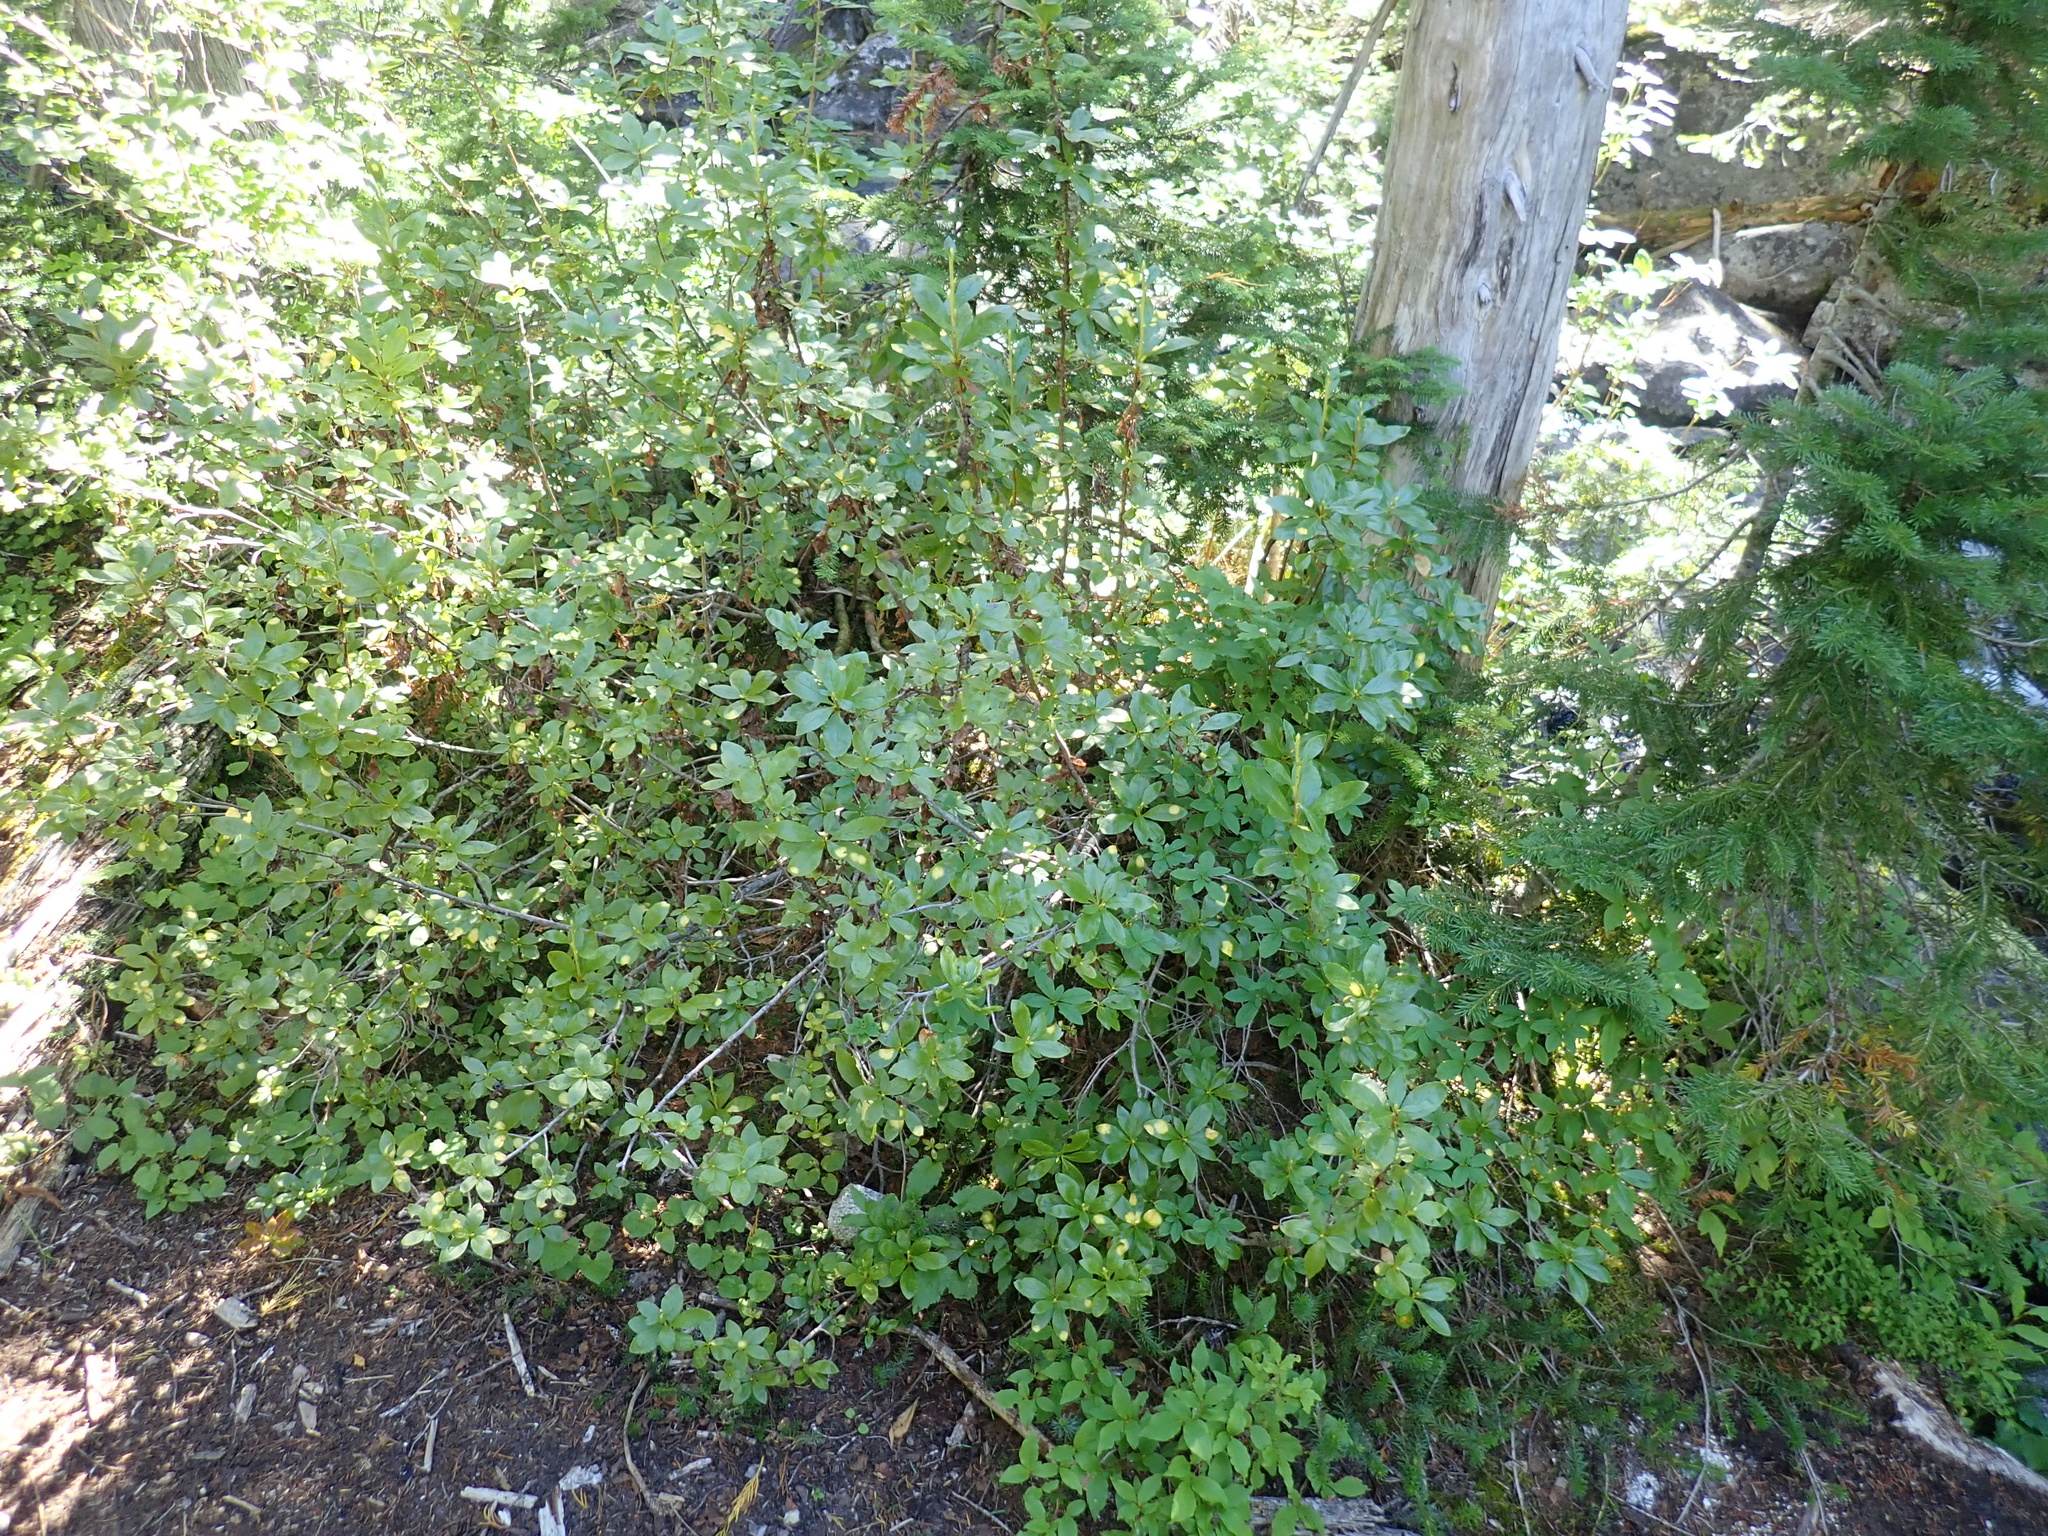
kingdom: Plantae
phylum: Tracheophyta
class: Magnoliopsida
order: Ericales
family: Ericaceae
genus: Rhododendron
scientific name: Rhododendron albiflorum
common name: White rhododendron
